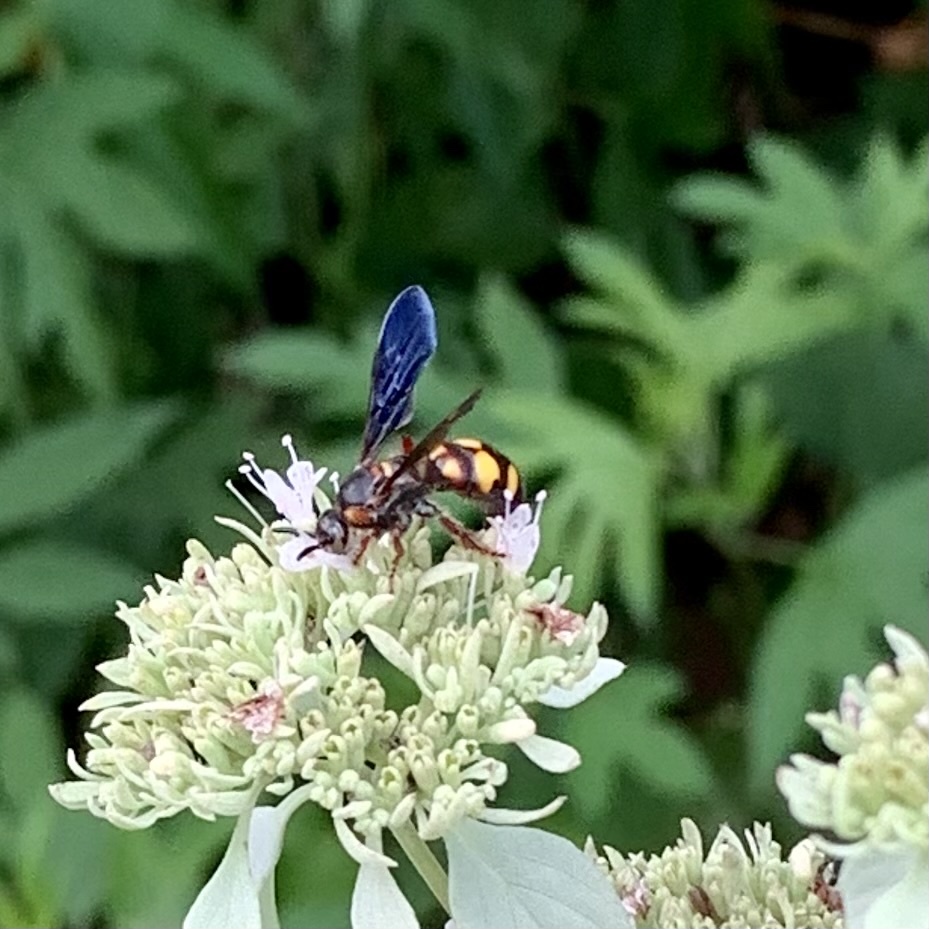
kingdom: Animalia
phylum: Arthropoda
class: Insecta
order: Hymenoptera
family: Scoliidae
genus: Scolia
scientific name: Scolia nobilitata
